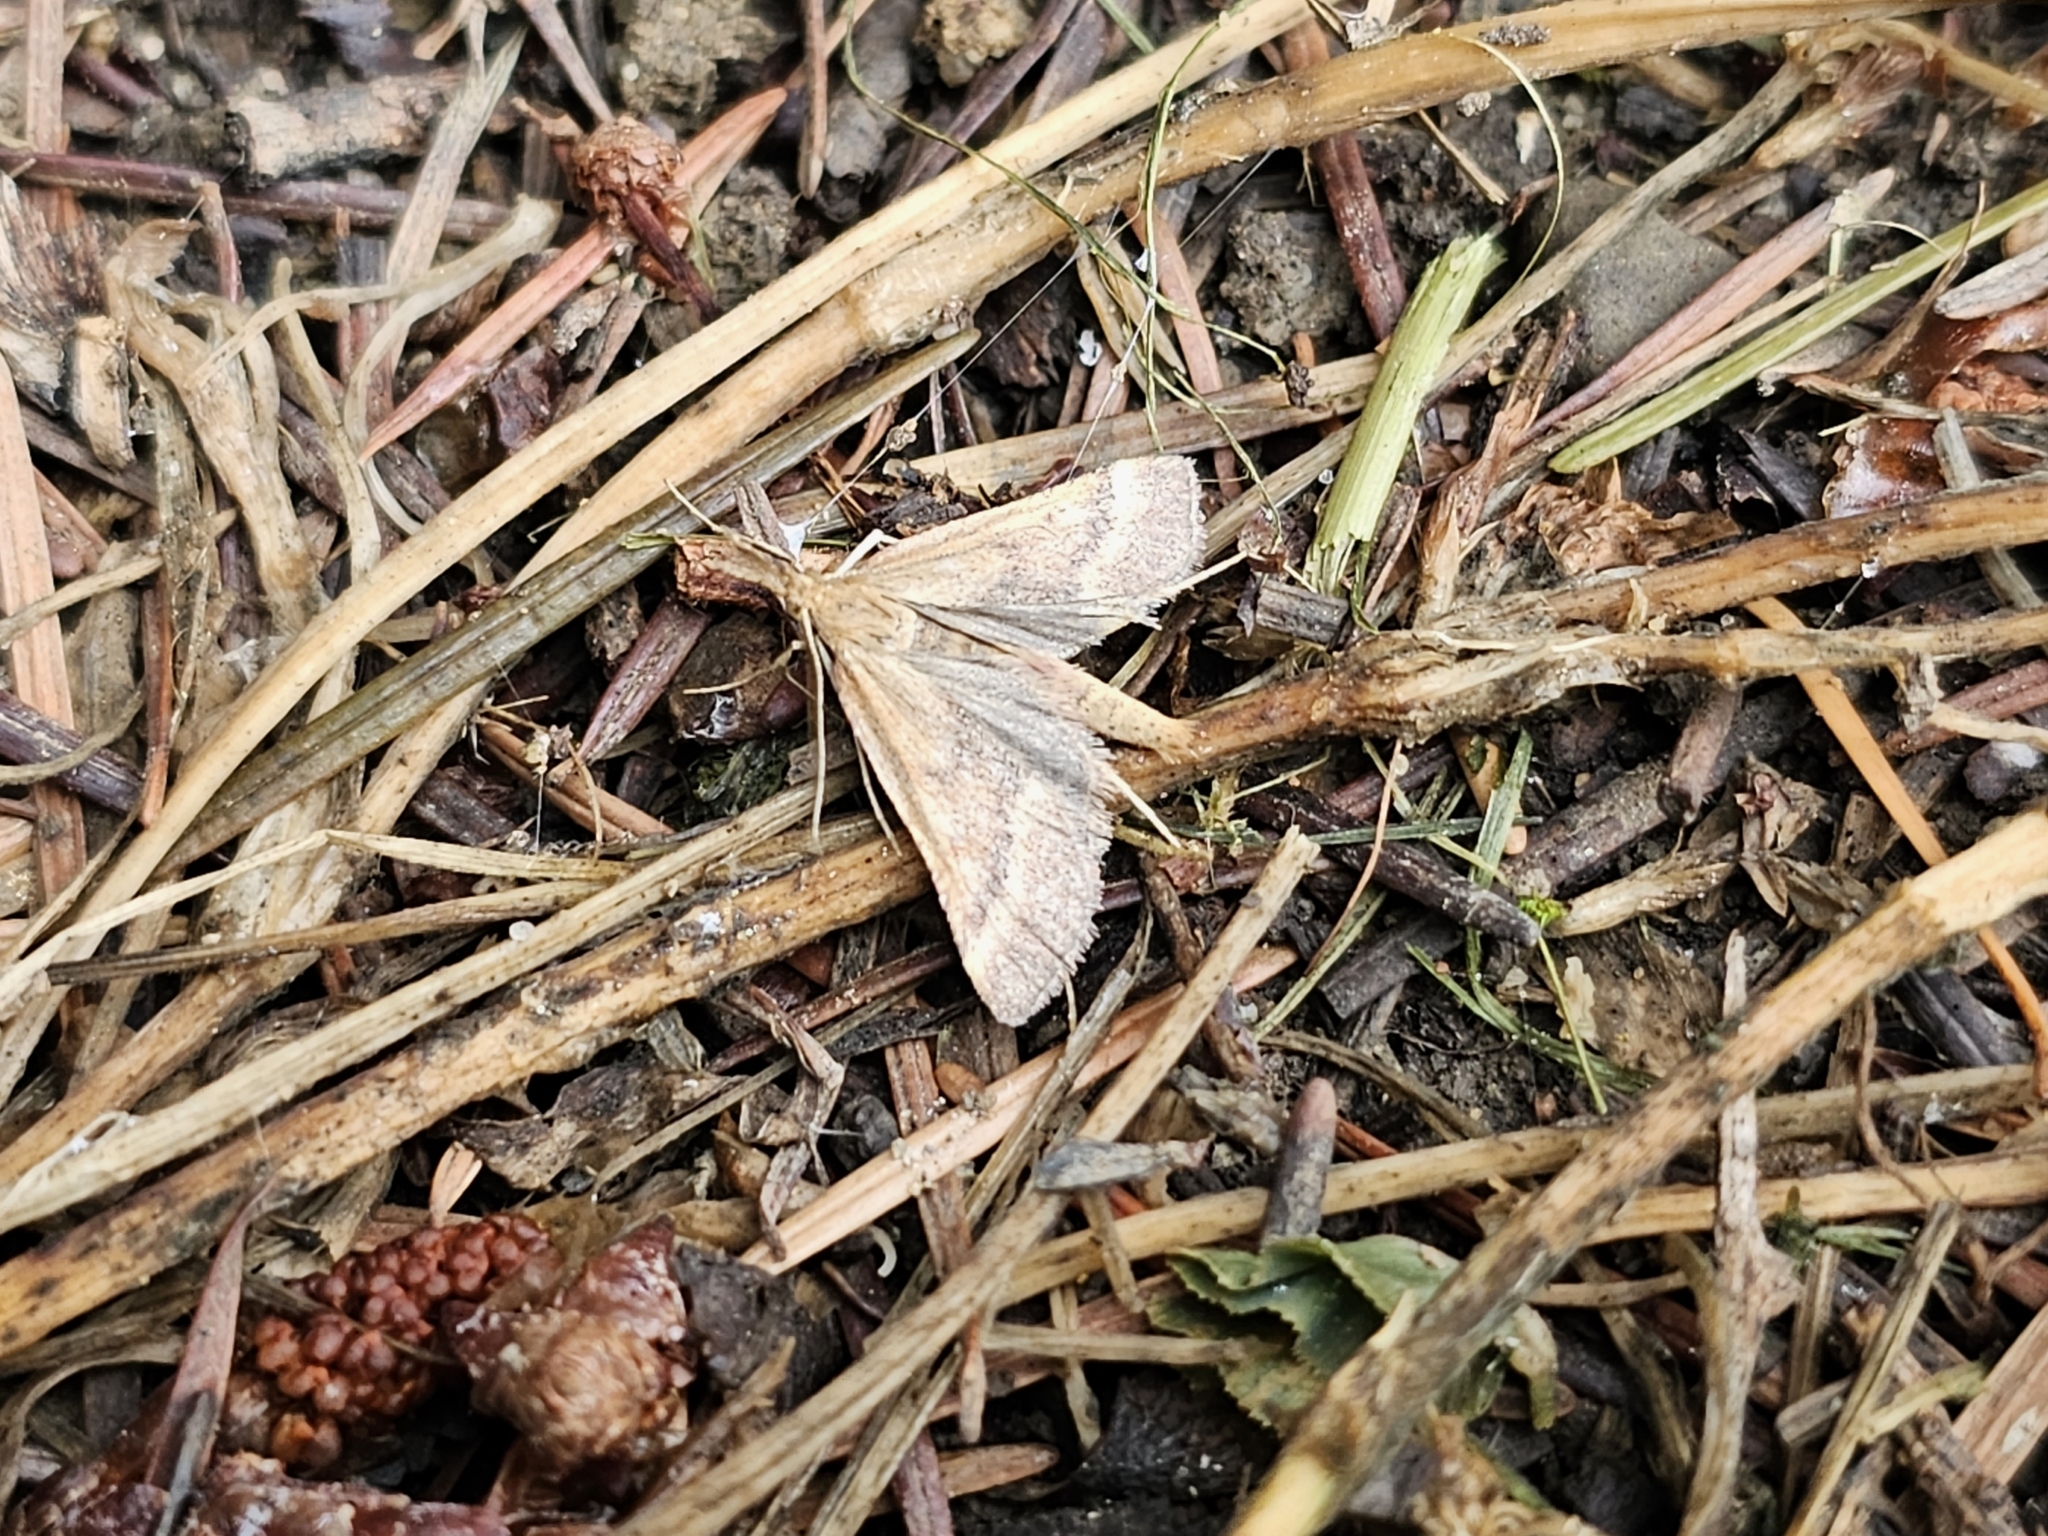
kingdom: Animalia
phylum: Arthropoda
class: Insecta
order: Lepidoptera
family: Pyralidae
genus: Synaphe
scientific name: Synaphe punctalis
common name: Long-legged tabby
